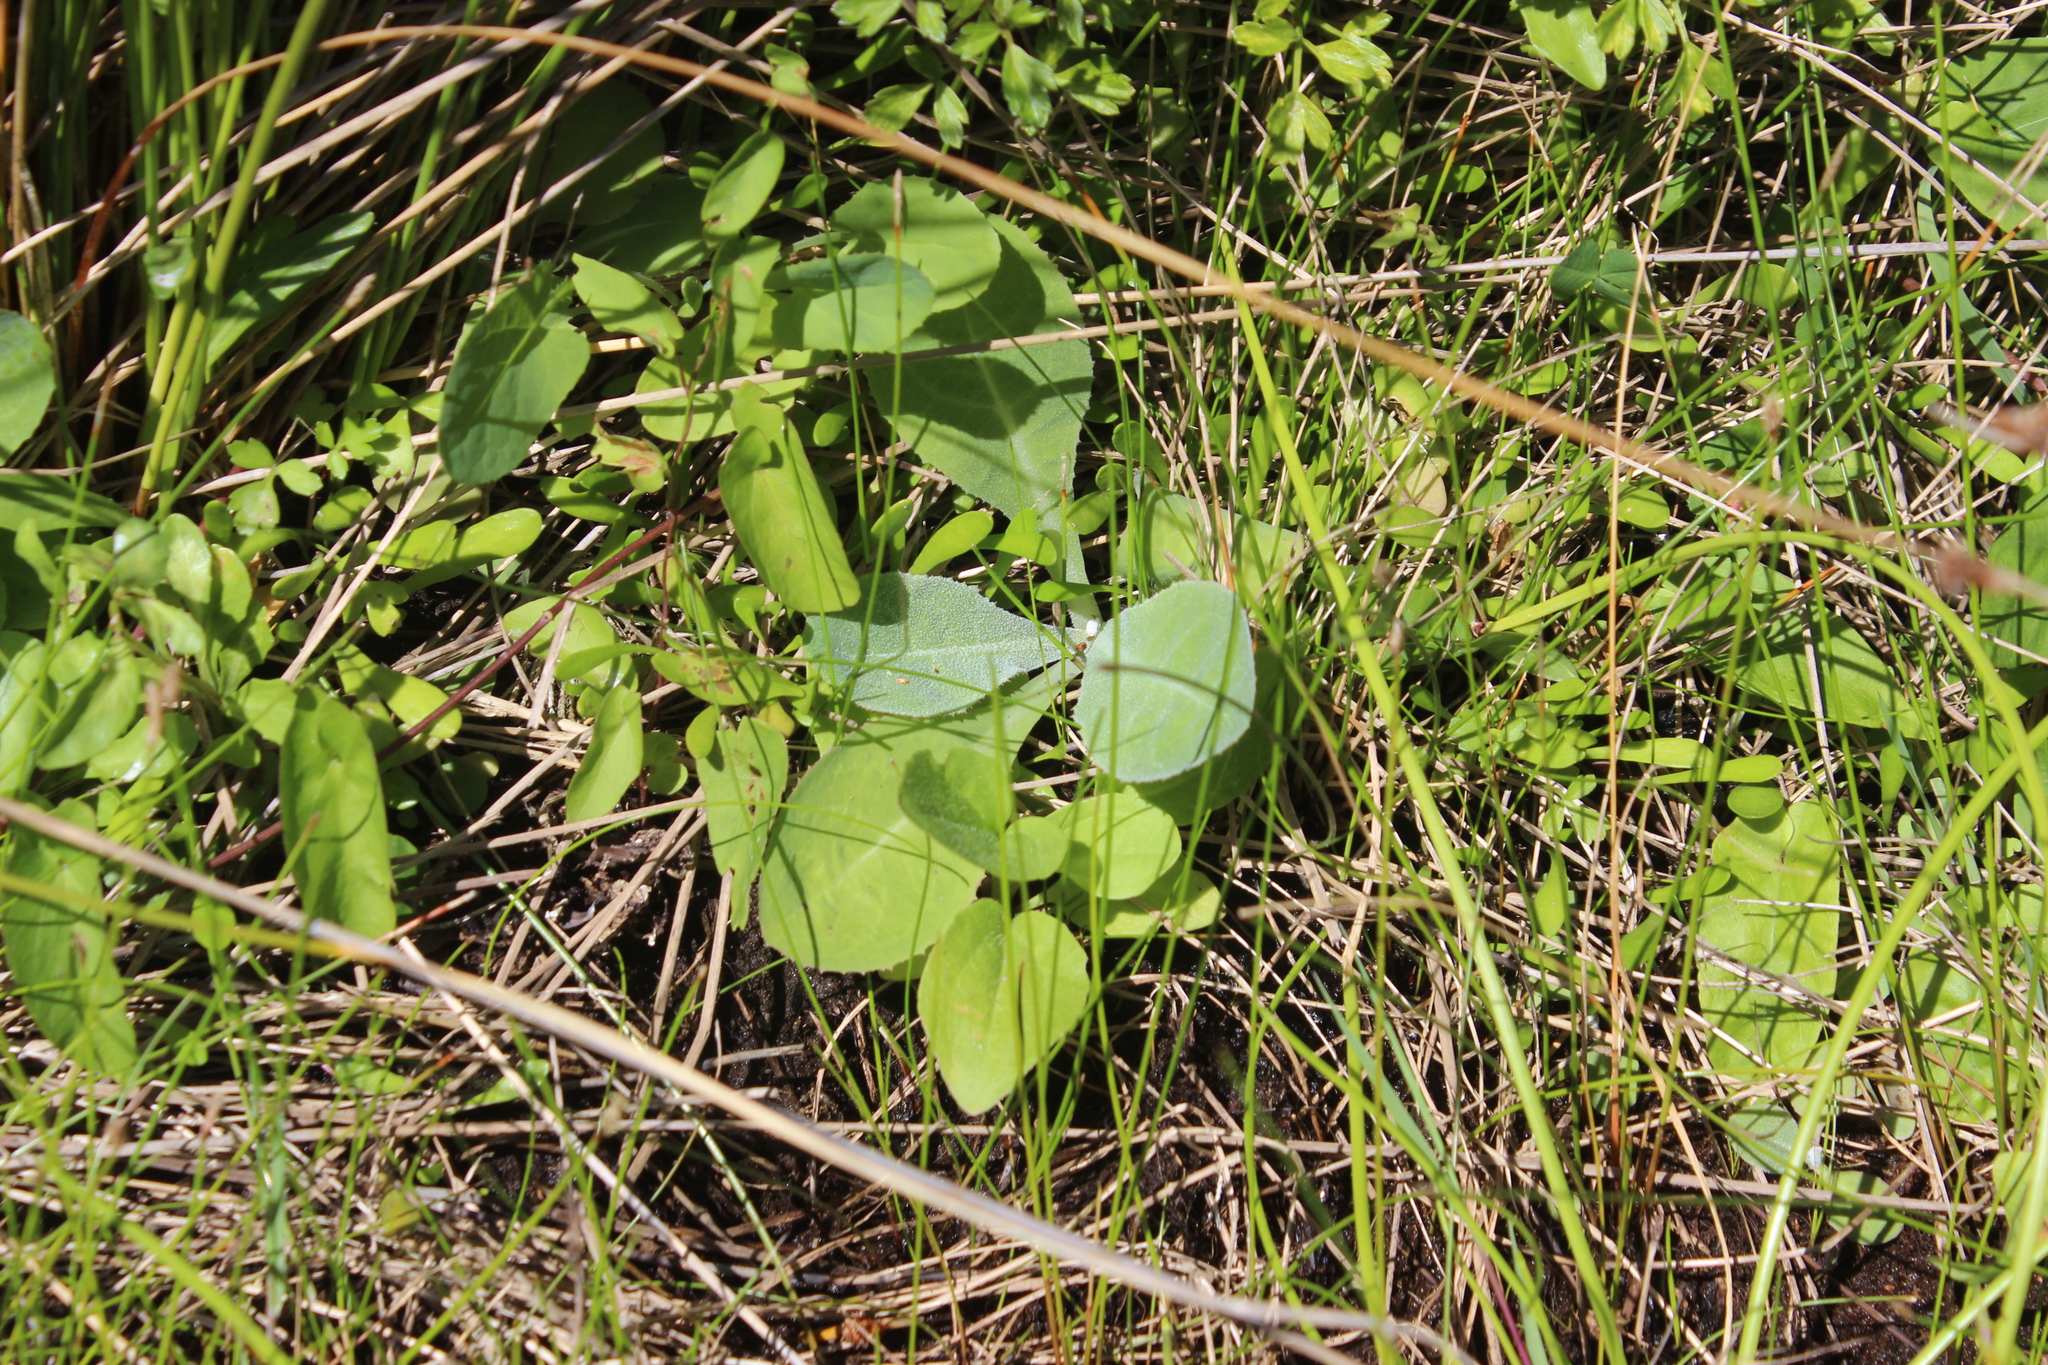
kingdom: Plantae
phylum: Tracheophyta
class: Magnoliopsida
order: Asterales
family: Asteraceae
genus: Sonchus
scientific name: Sonchus kirkii
